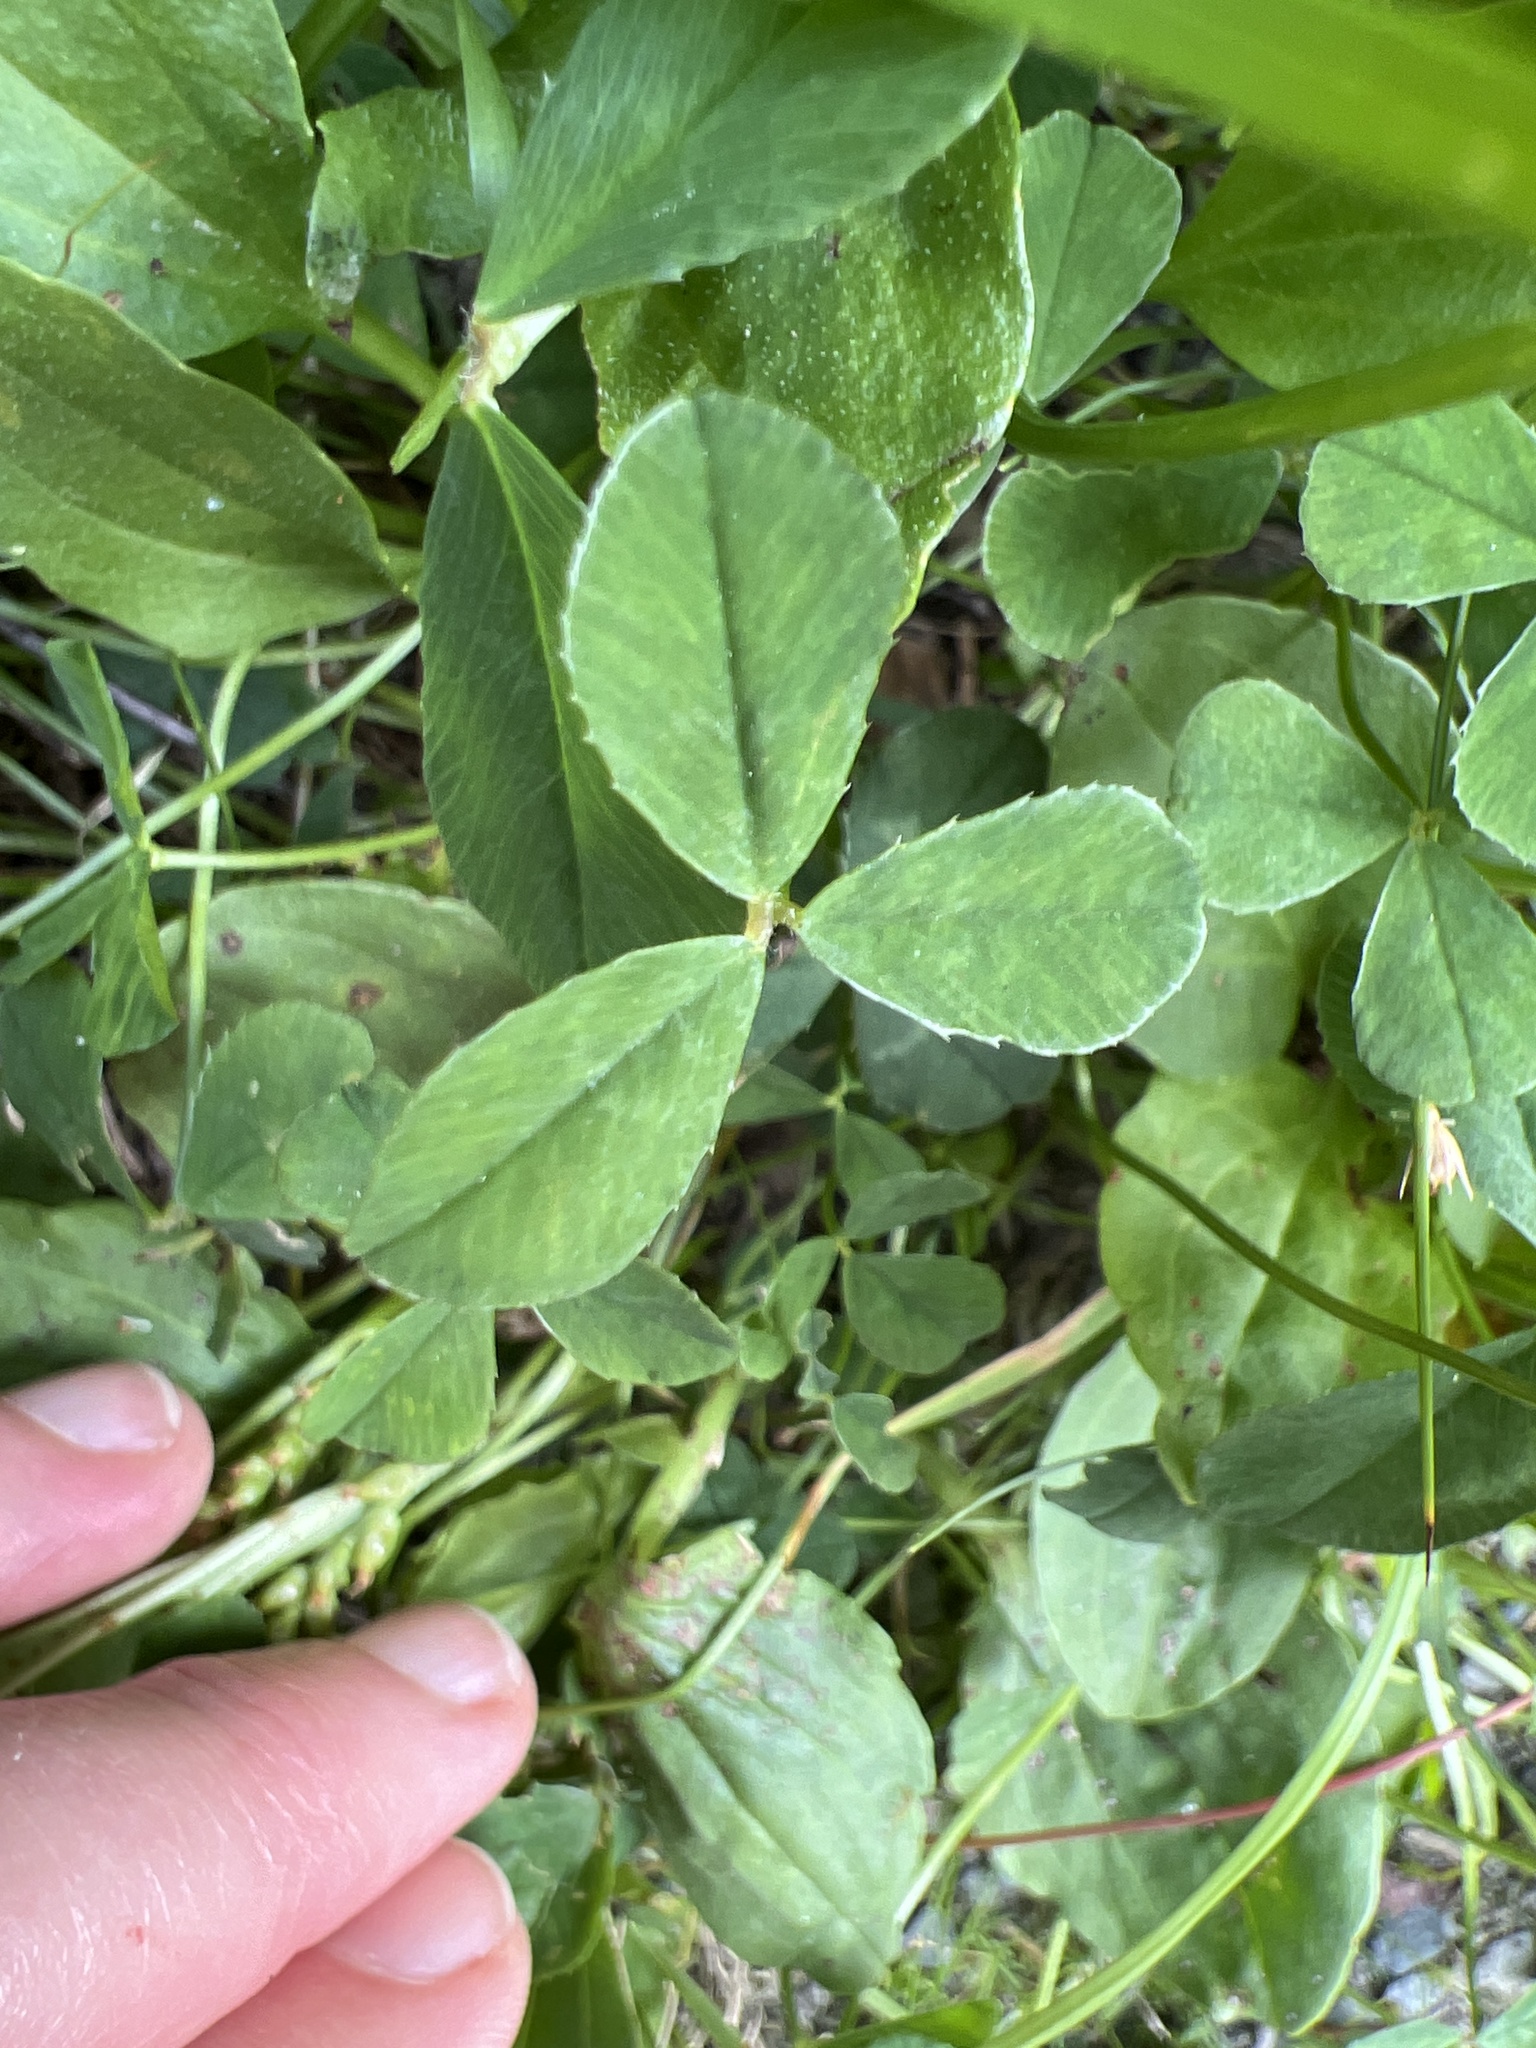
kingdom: Plantae
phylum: Tracheophyta
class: Magnoliopsida
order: Fabales
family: Fabaceae
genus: Trifolium
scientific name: Trifolium repens
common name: White clover
